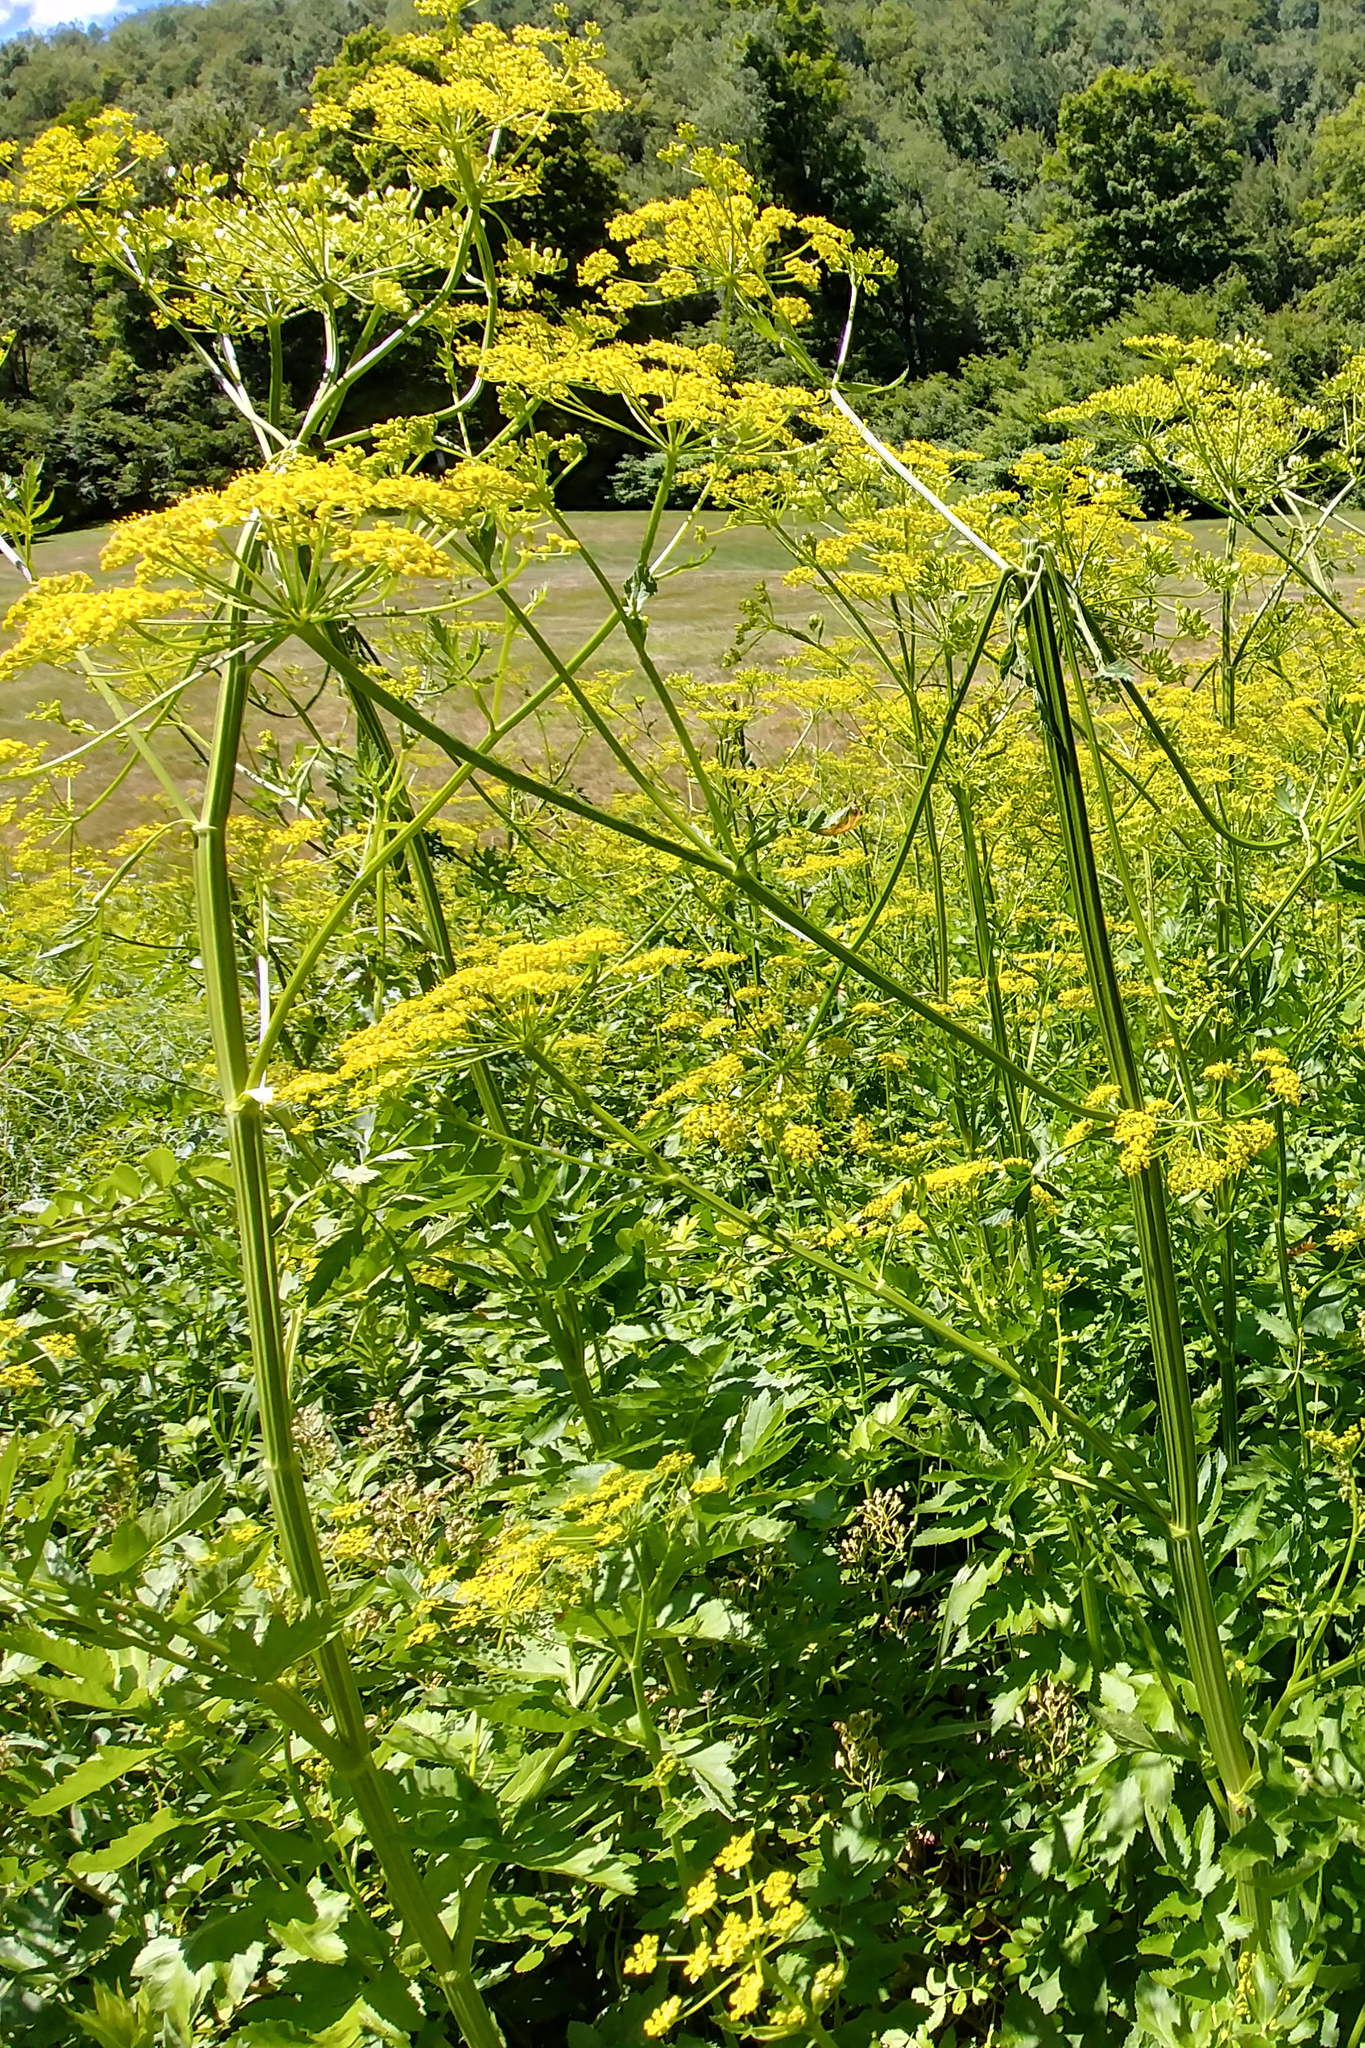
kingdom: Plantae
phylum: Tracheophyta
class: Magnoliopsida
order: Apiales
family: Apiaceae
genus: Pastinaca
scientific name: Pastinaca sativa
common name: Wild parsnip
